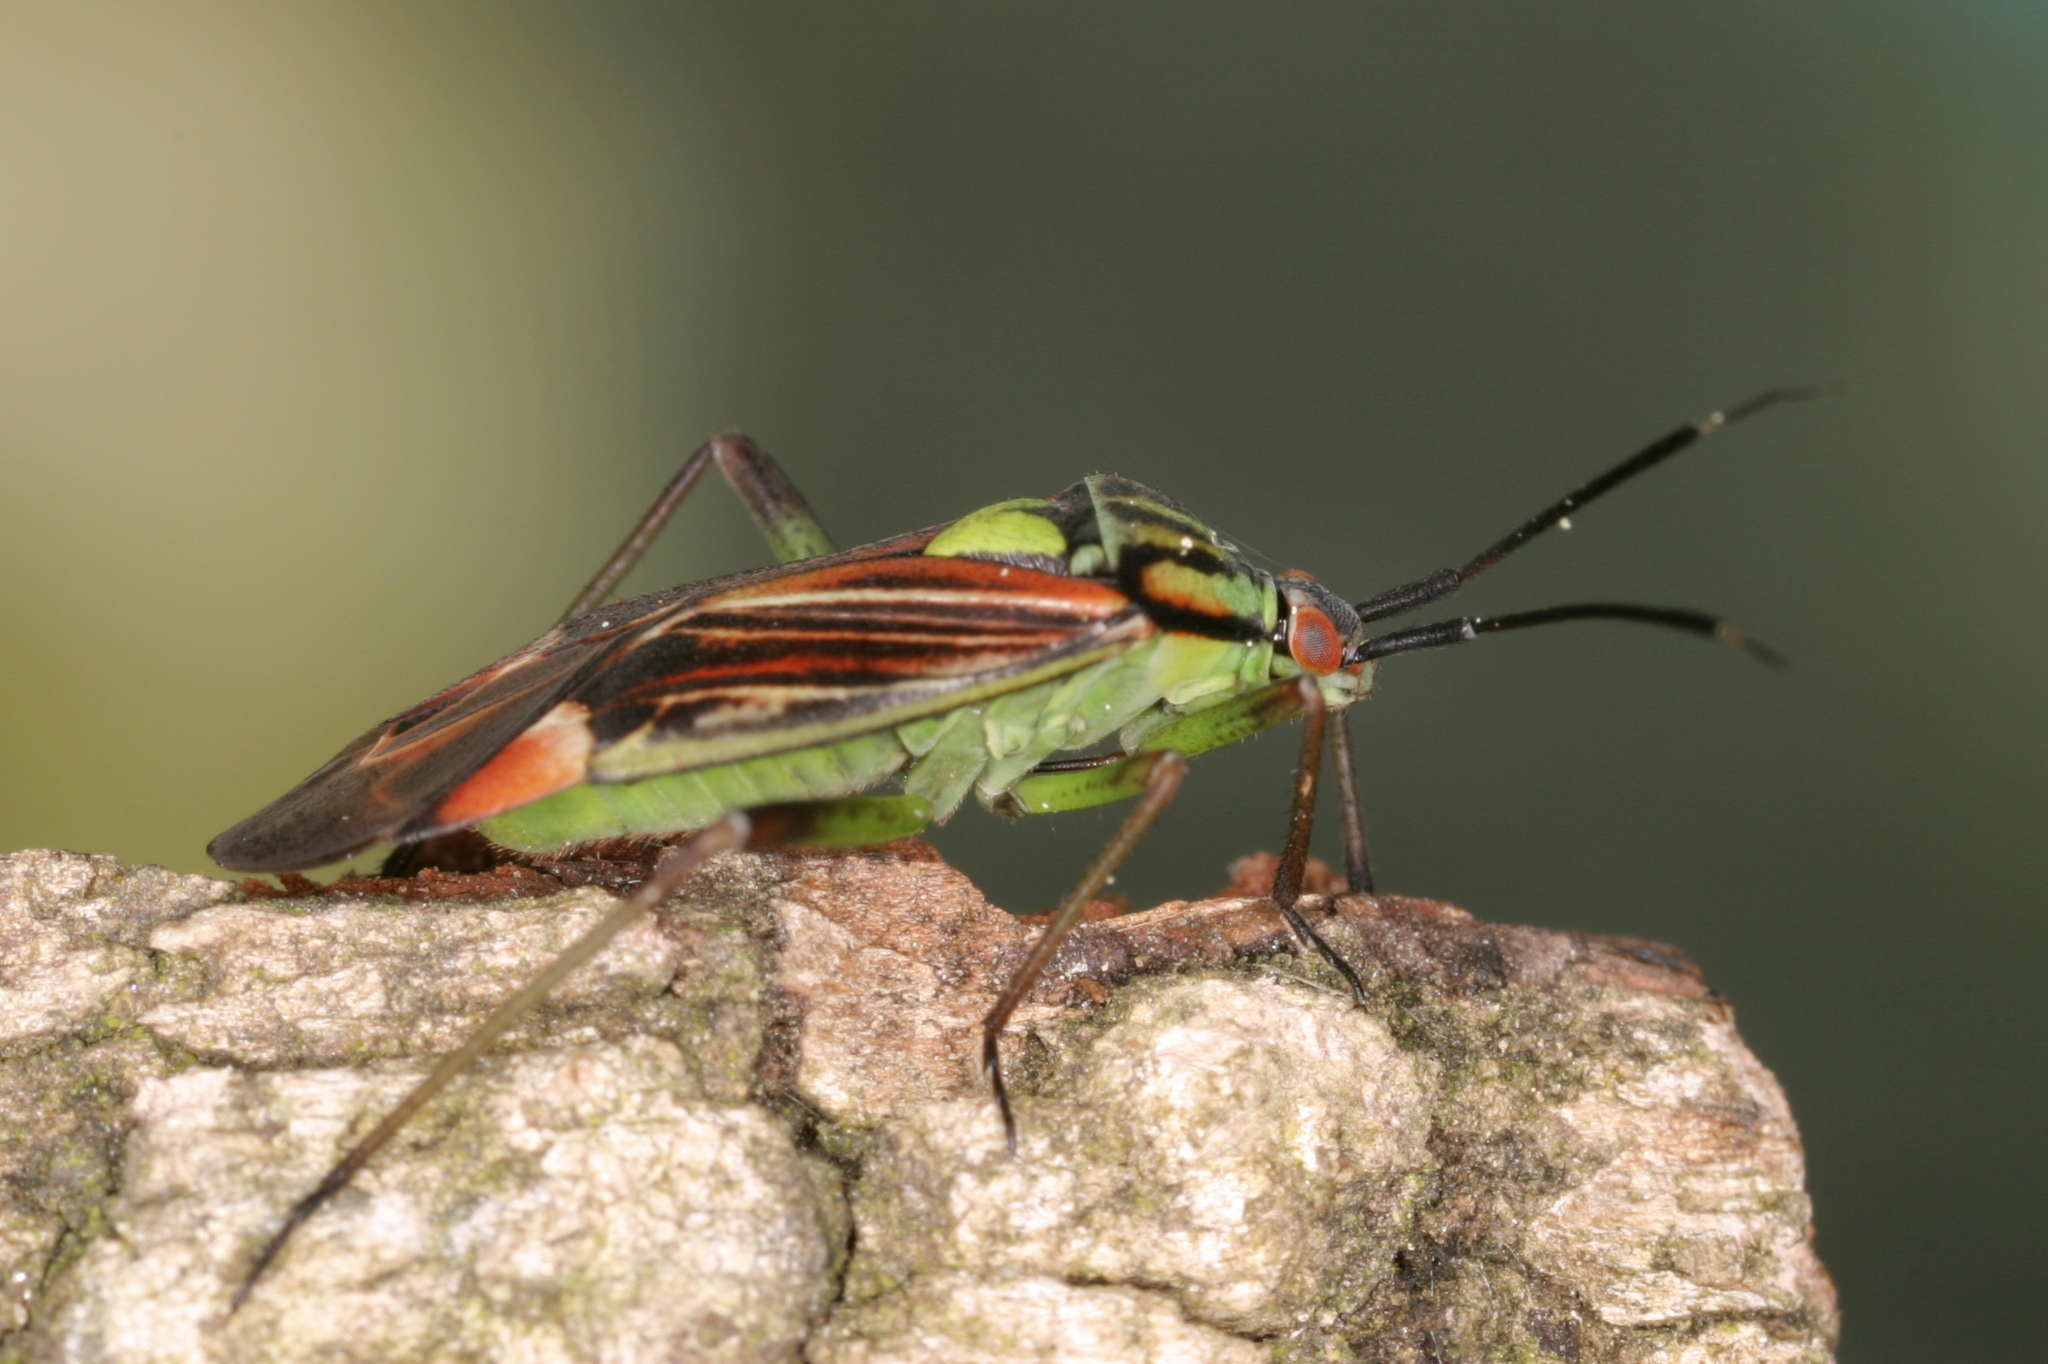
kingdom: Animalia
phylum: Arthropoda
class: Insecta
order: Hemiptera
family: Miridae
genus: Actinonotus
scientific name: Actinonotus pulcher
